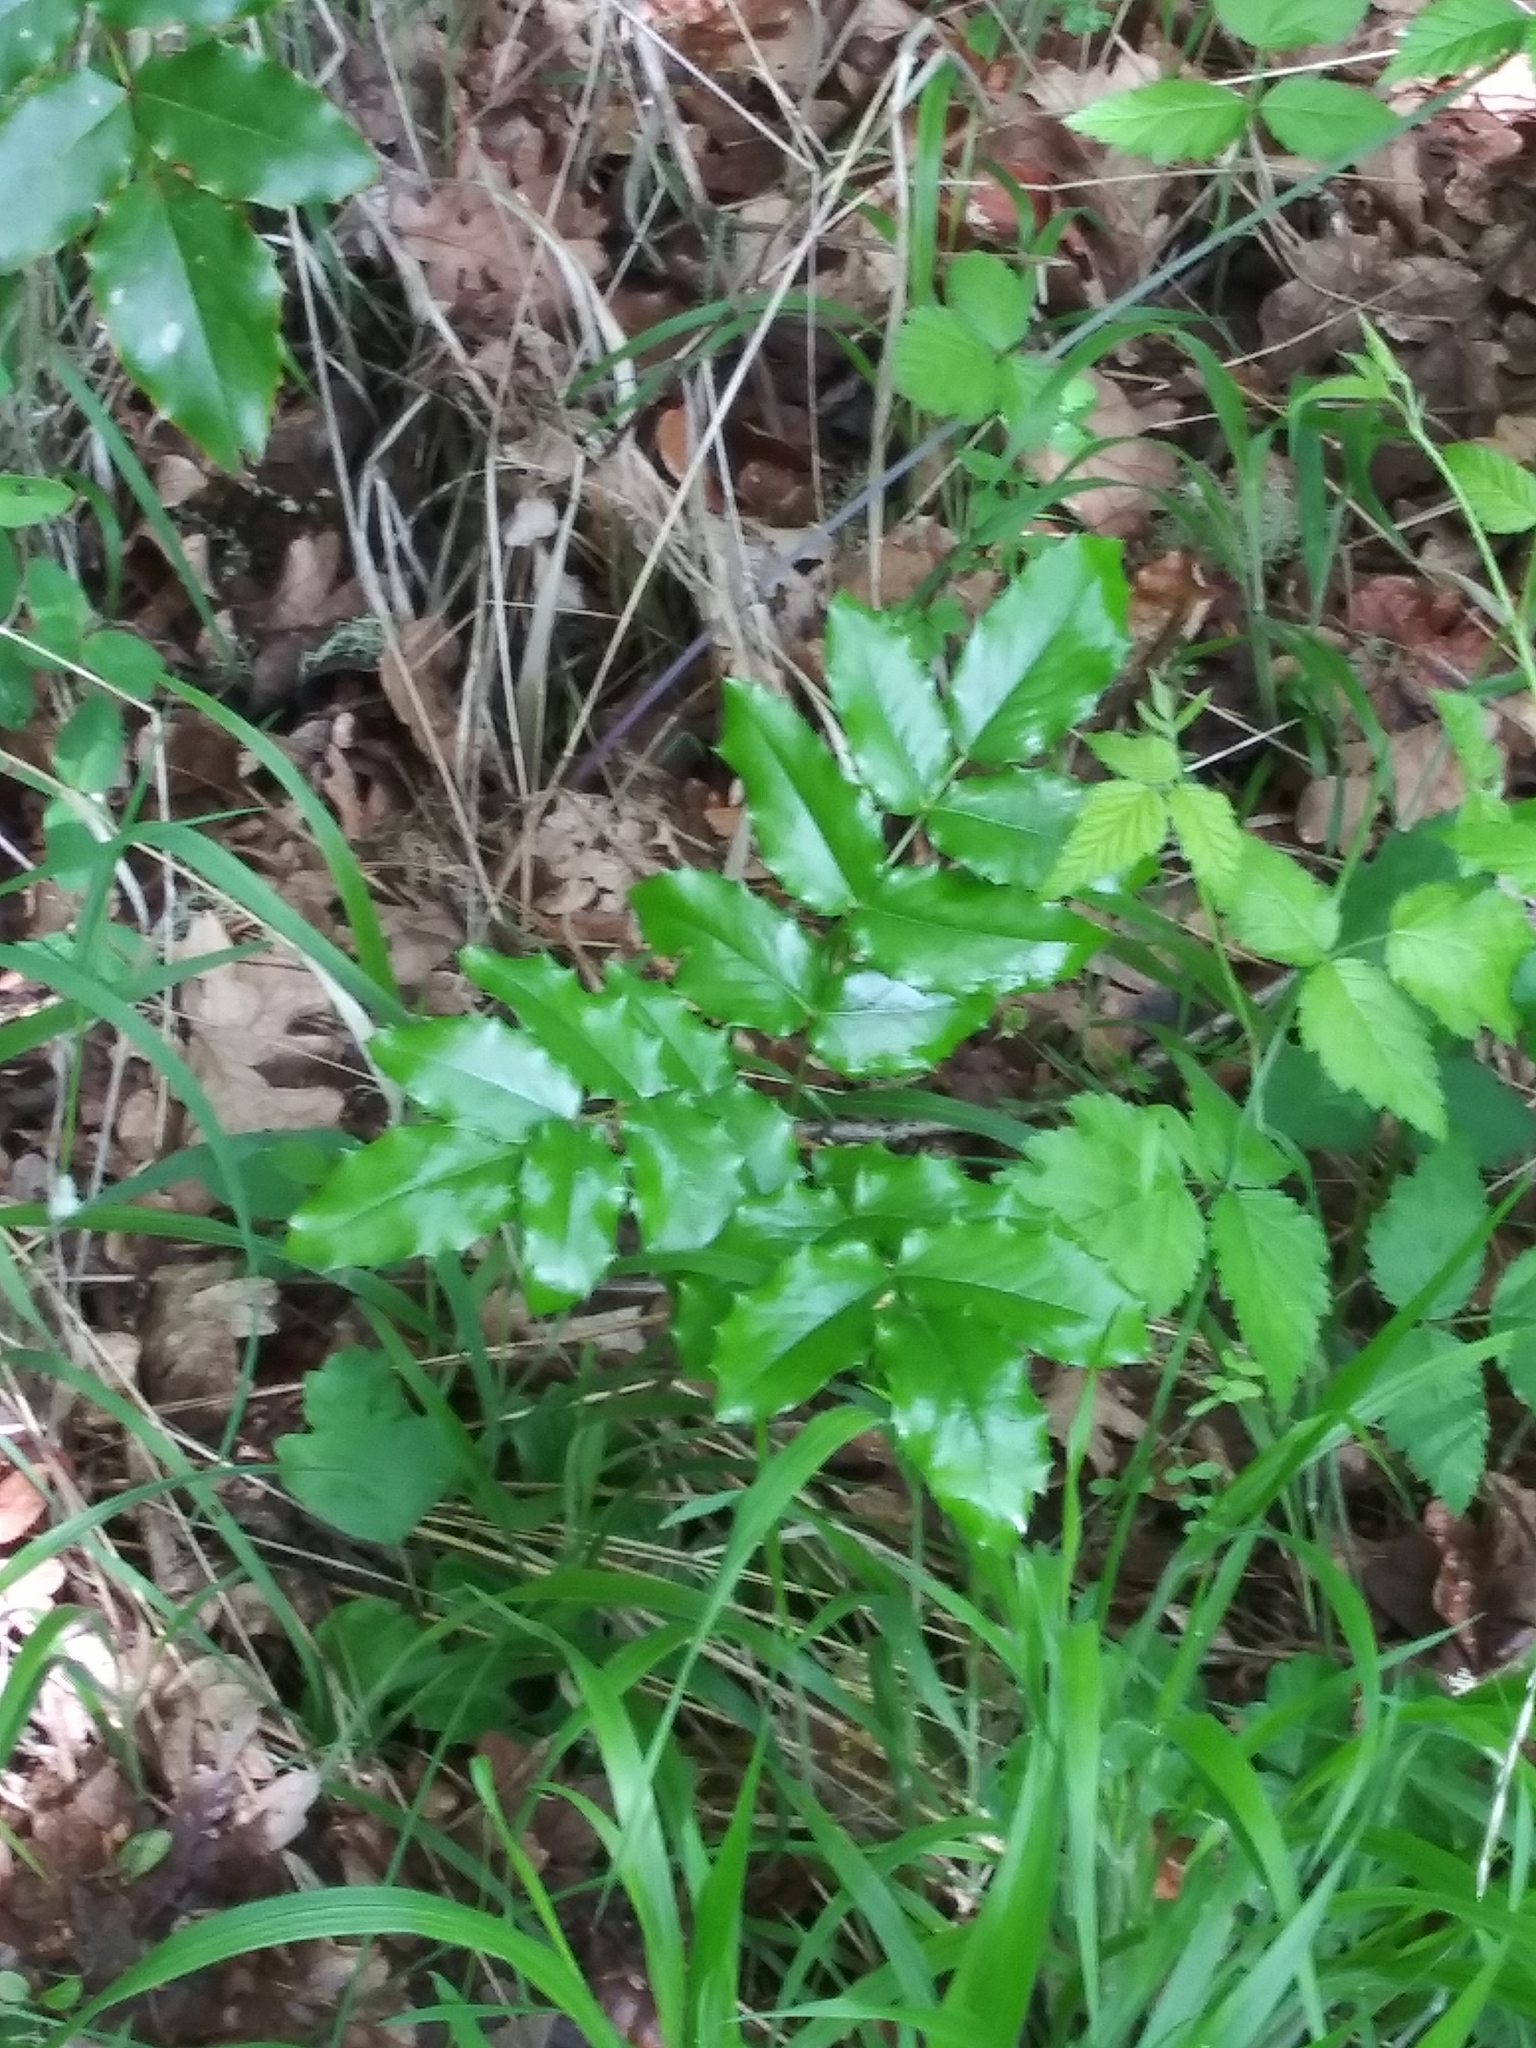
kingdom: Plantae
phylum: Tracheophyta
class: Magnoliopsida
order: Ranunculales
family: Berberidaceae
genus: Mahonia
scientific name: Mahonia aquifolium
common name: Oregon-grape
